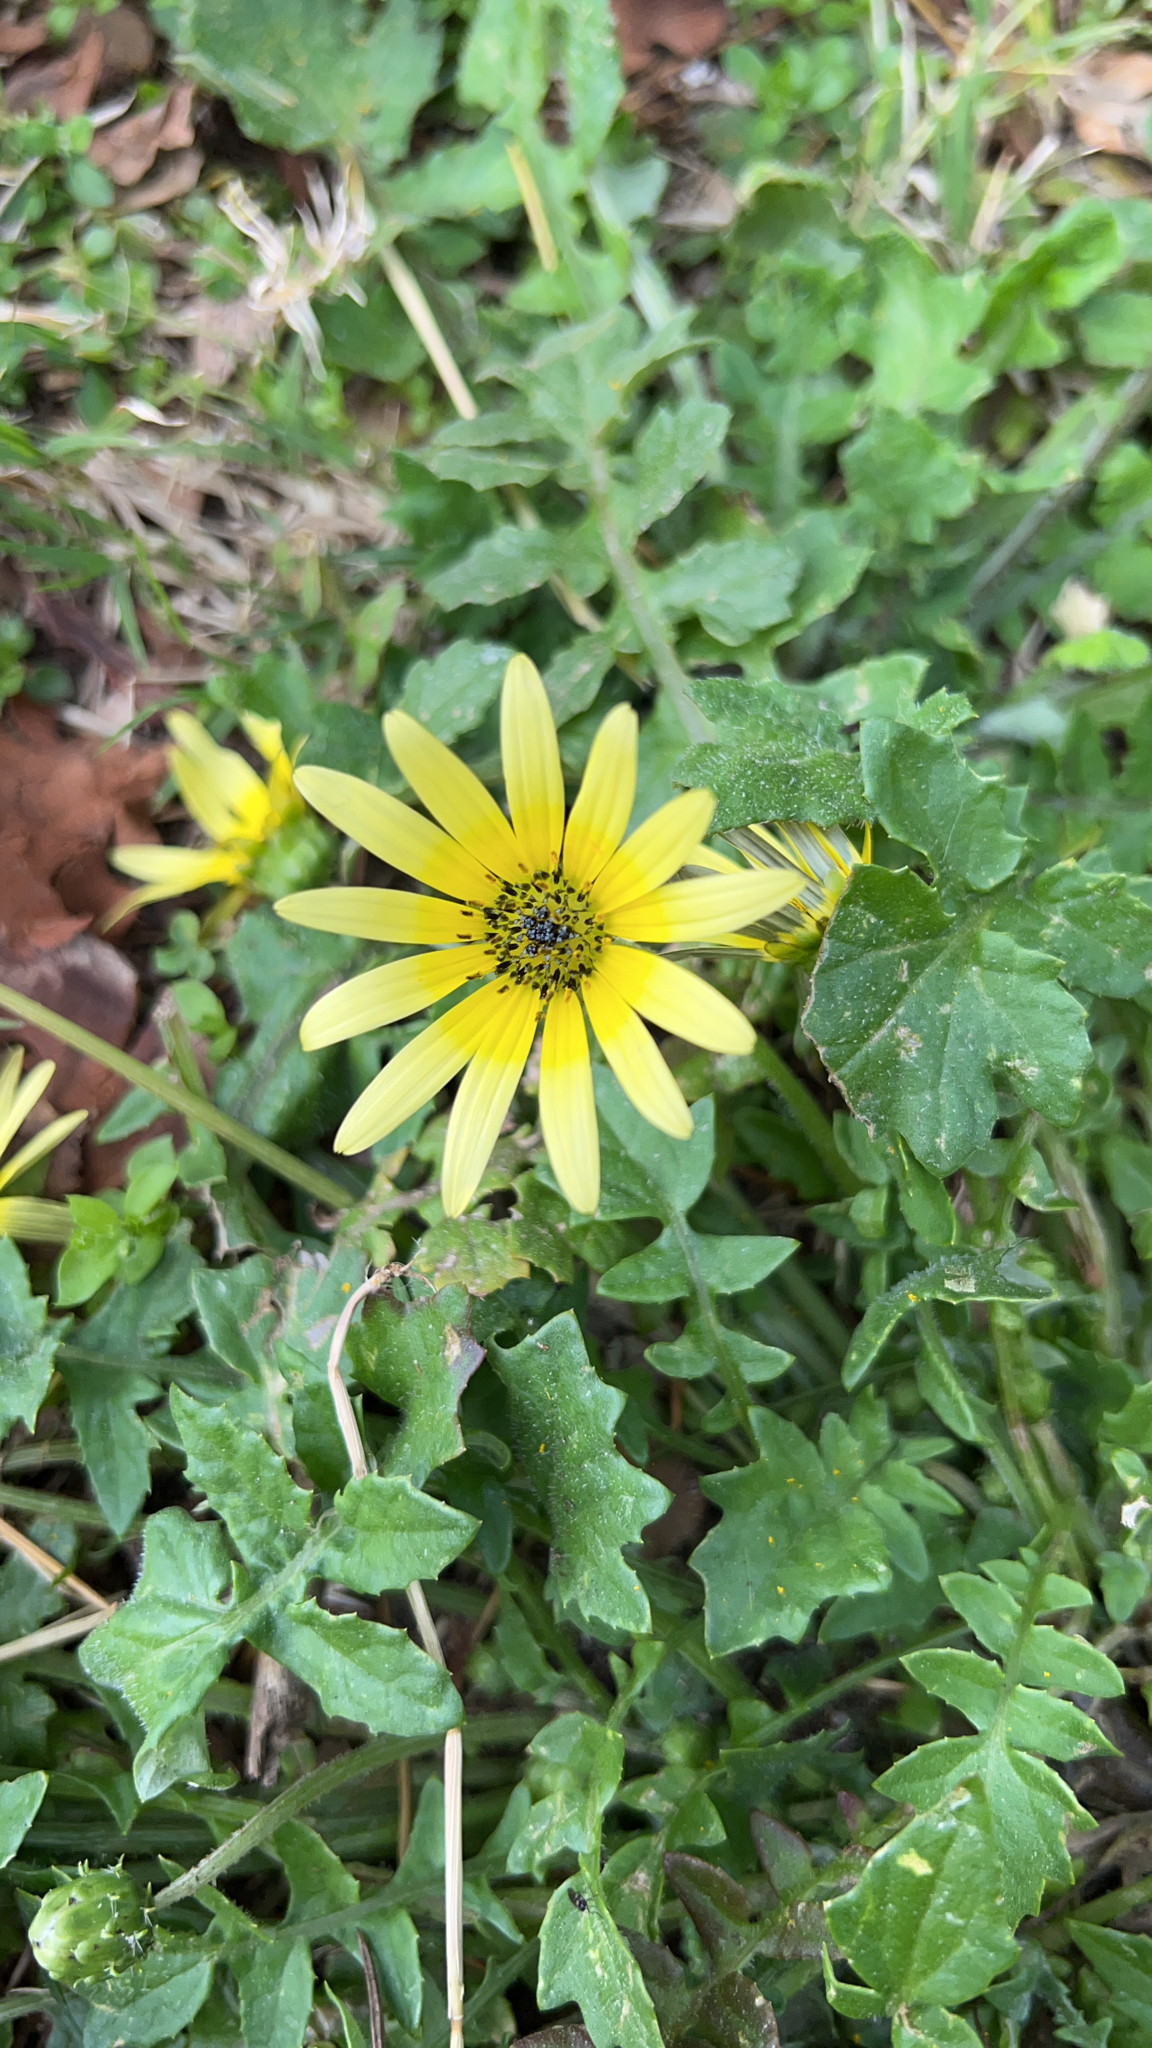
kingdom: Plantae
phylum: Tracheophyta
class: Magnoliopsida
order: Asterales
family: Asteraceae
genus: Arctotheca
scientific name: Arctotheca calendula
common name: Capeweed
